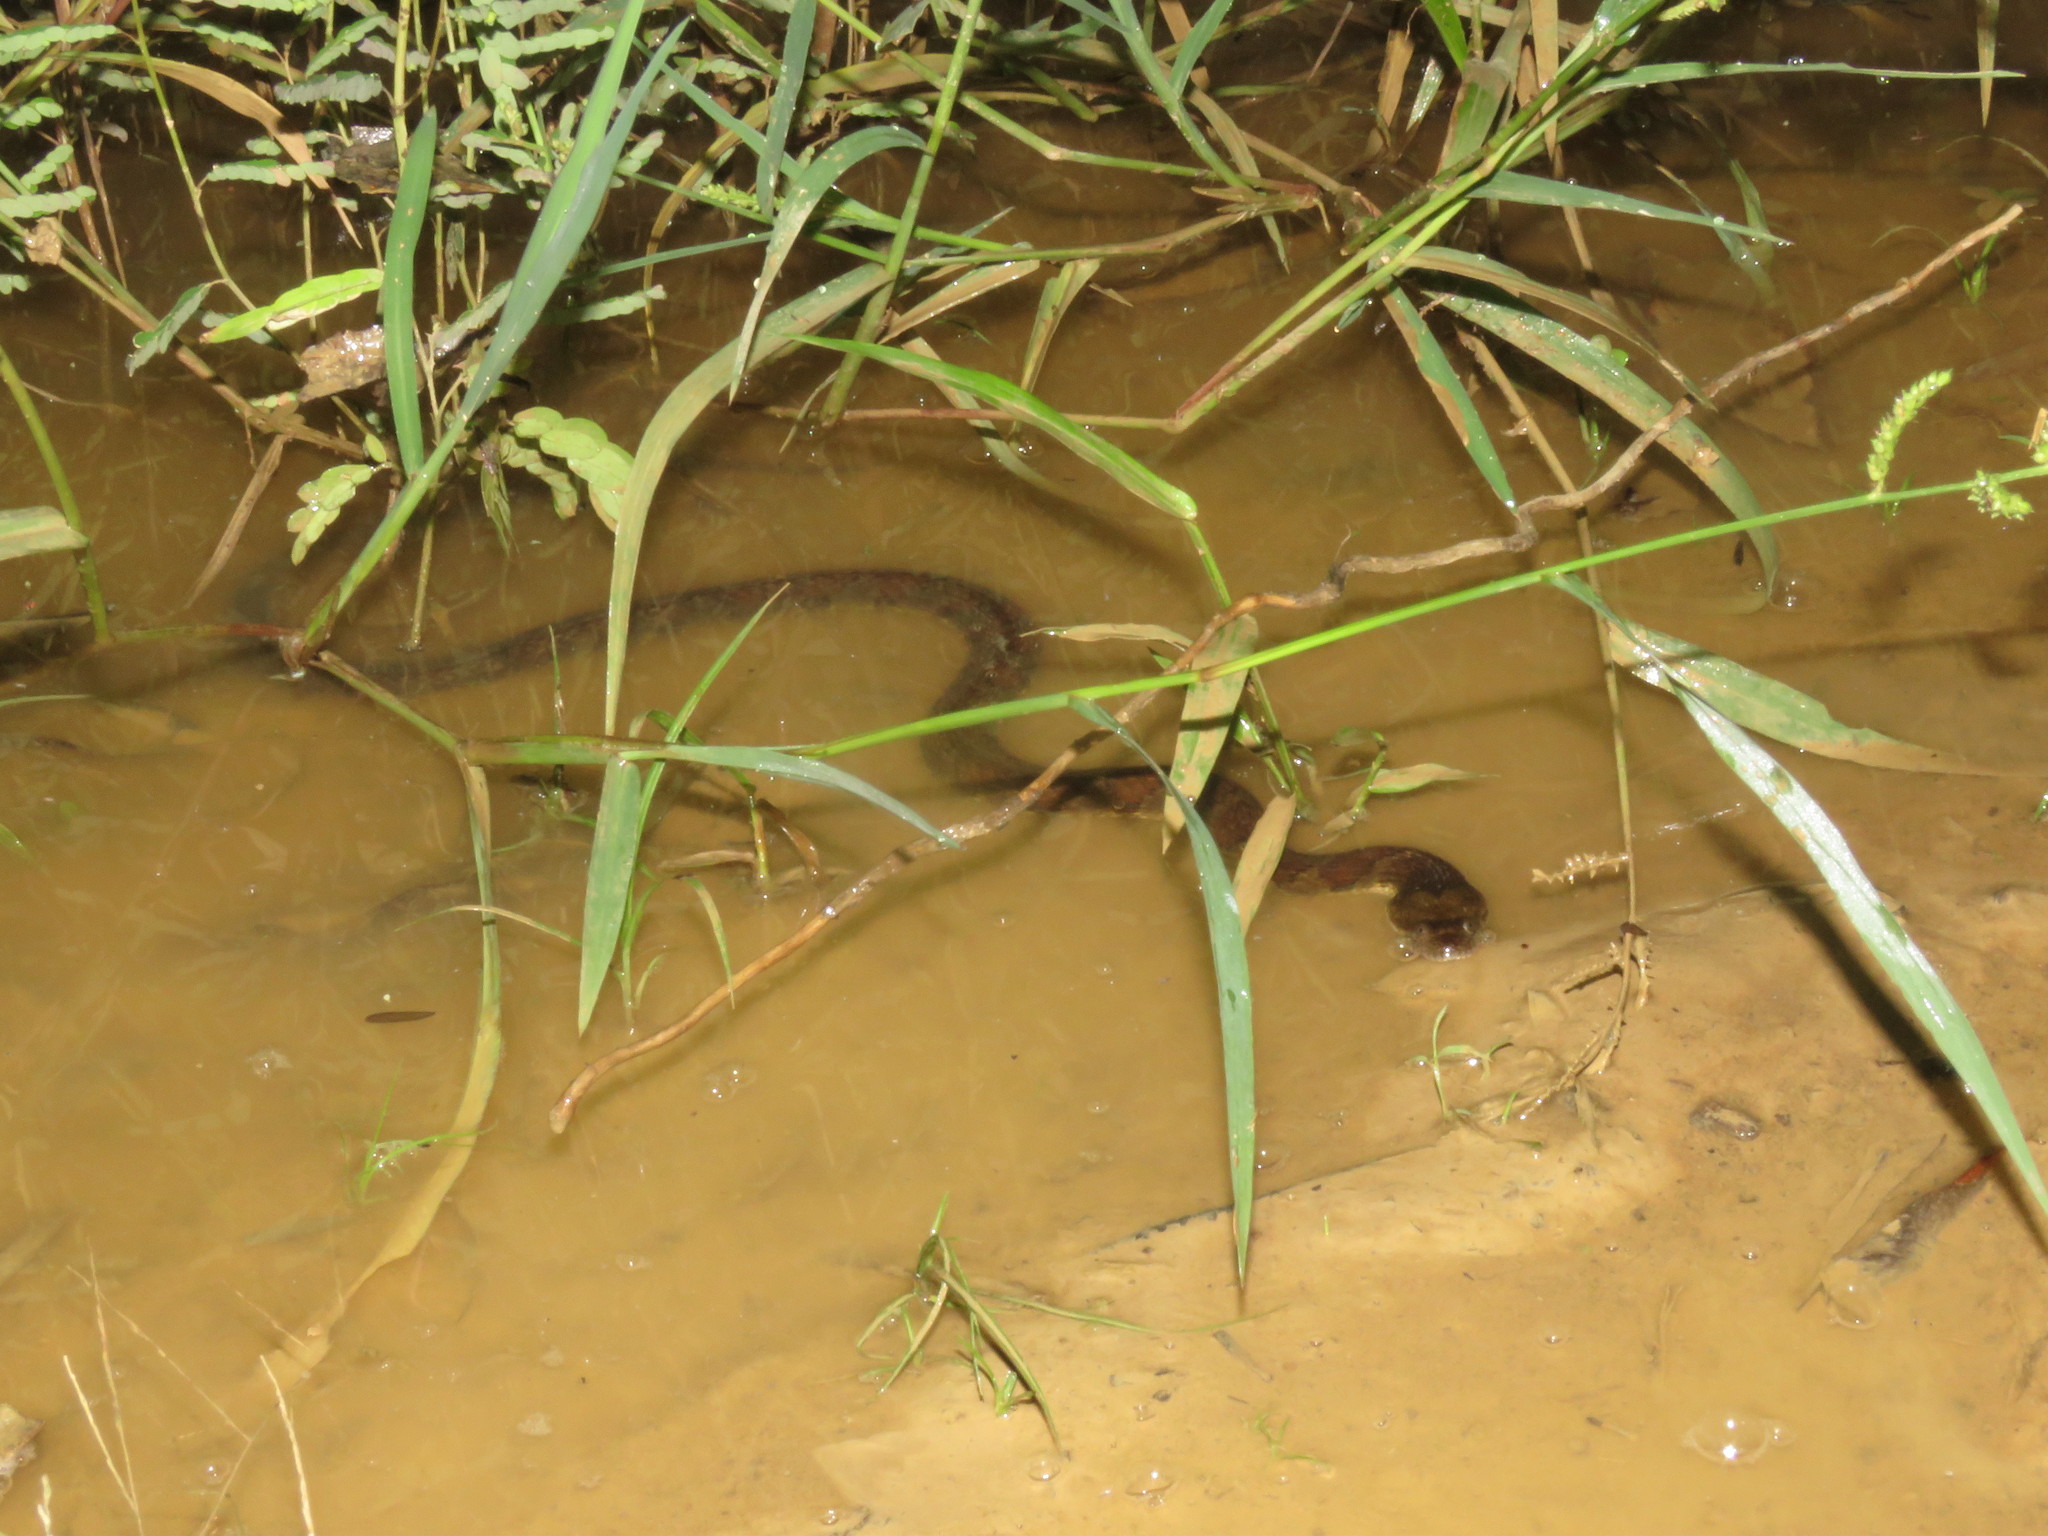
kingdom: Animalia
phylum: Chordata
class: Squamata
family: Colubridae
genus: Helicops
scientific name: Helicops angulatus
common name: Mountain keelback
